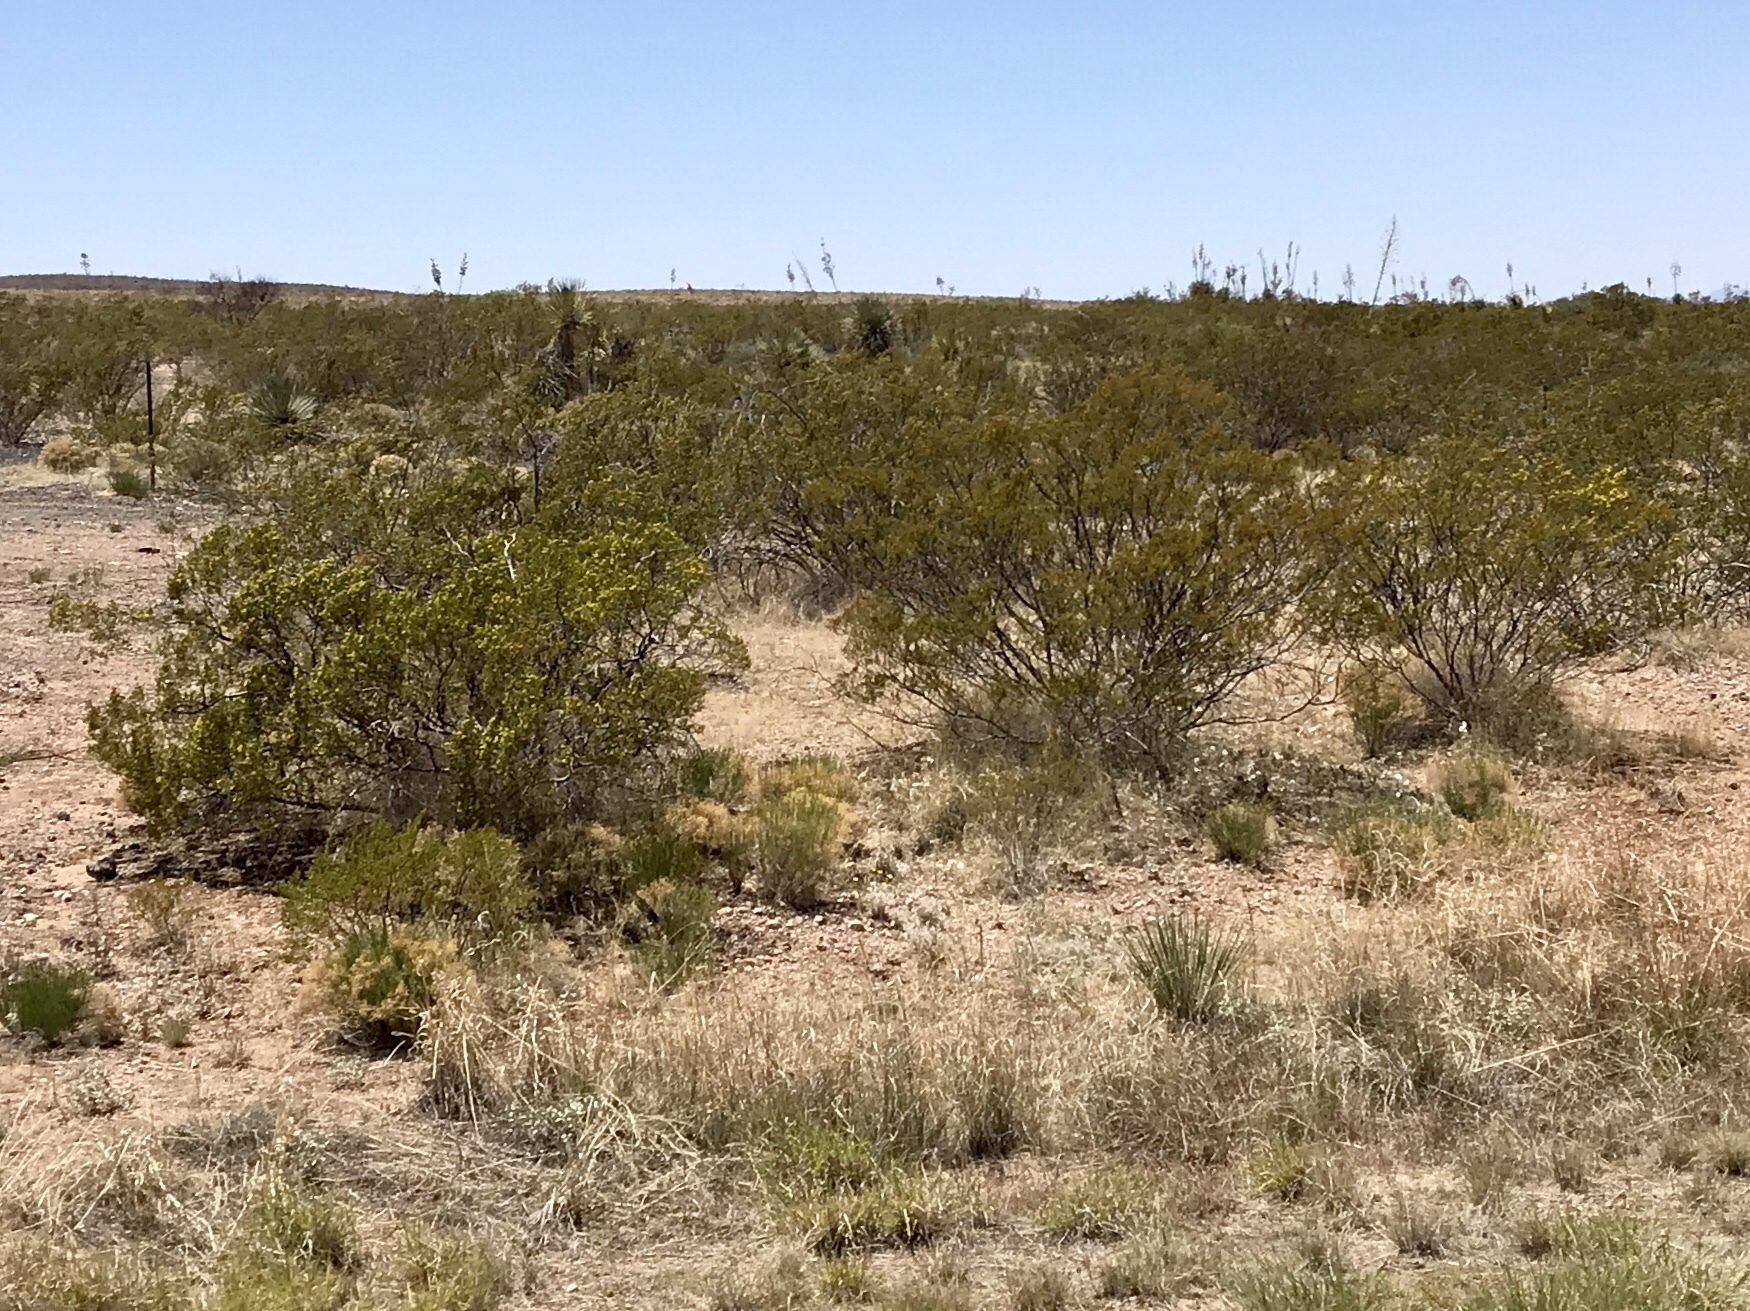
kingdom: Plantae
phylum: Tracheophyta
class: Magnoliopsida
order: Zygophyllales
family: Zygophyllaceae
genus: Larrea
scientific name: Larrea tridentata
